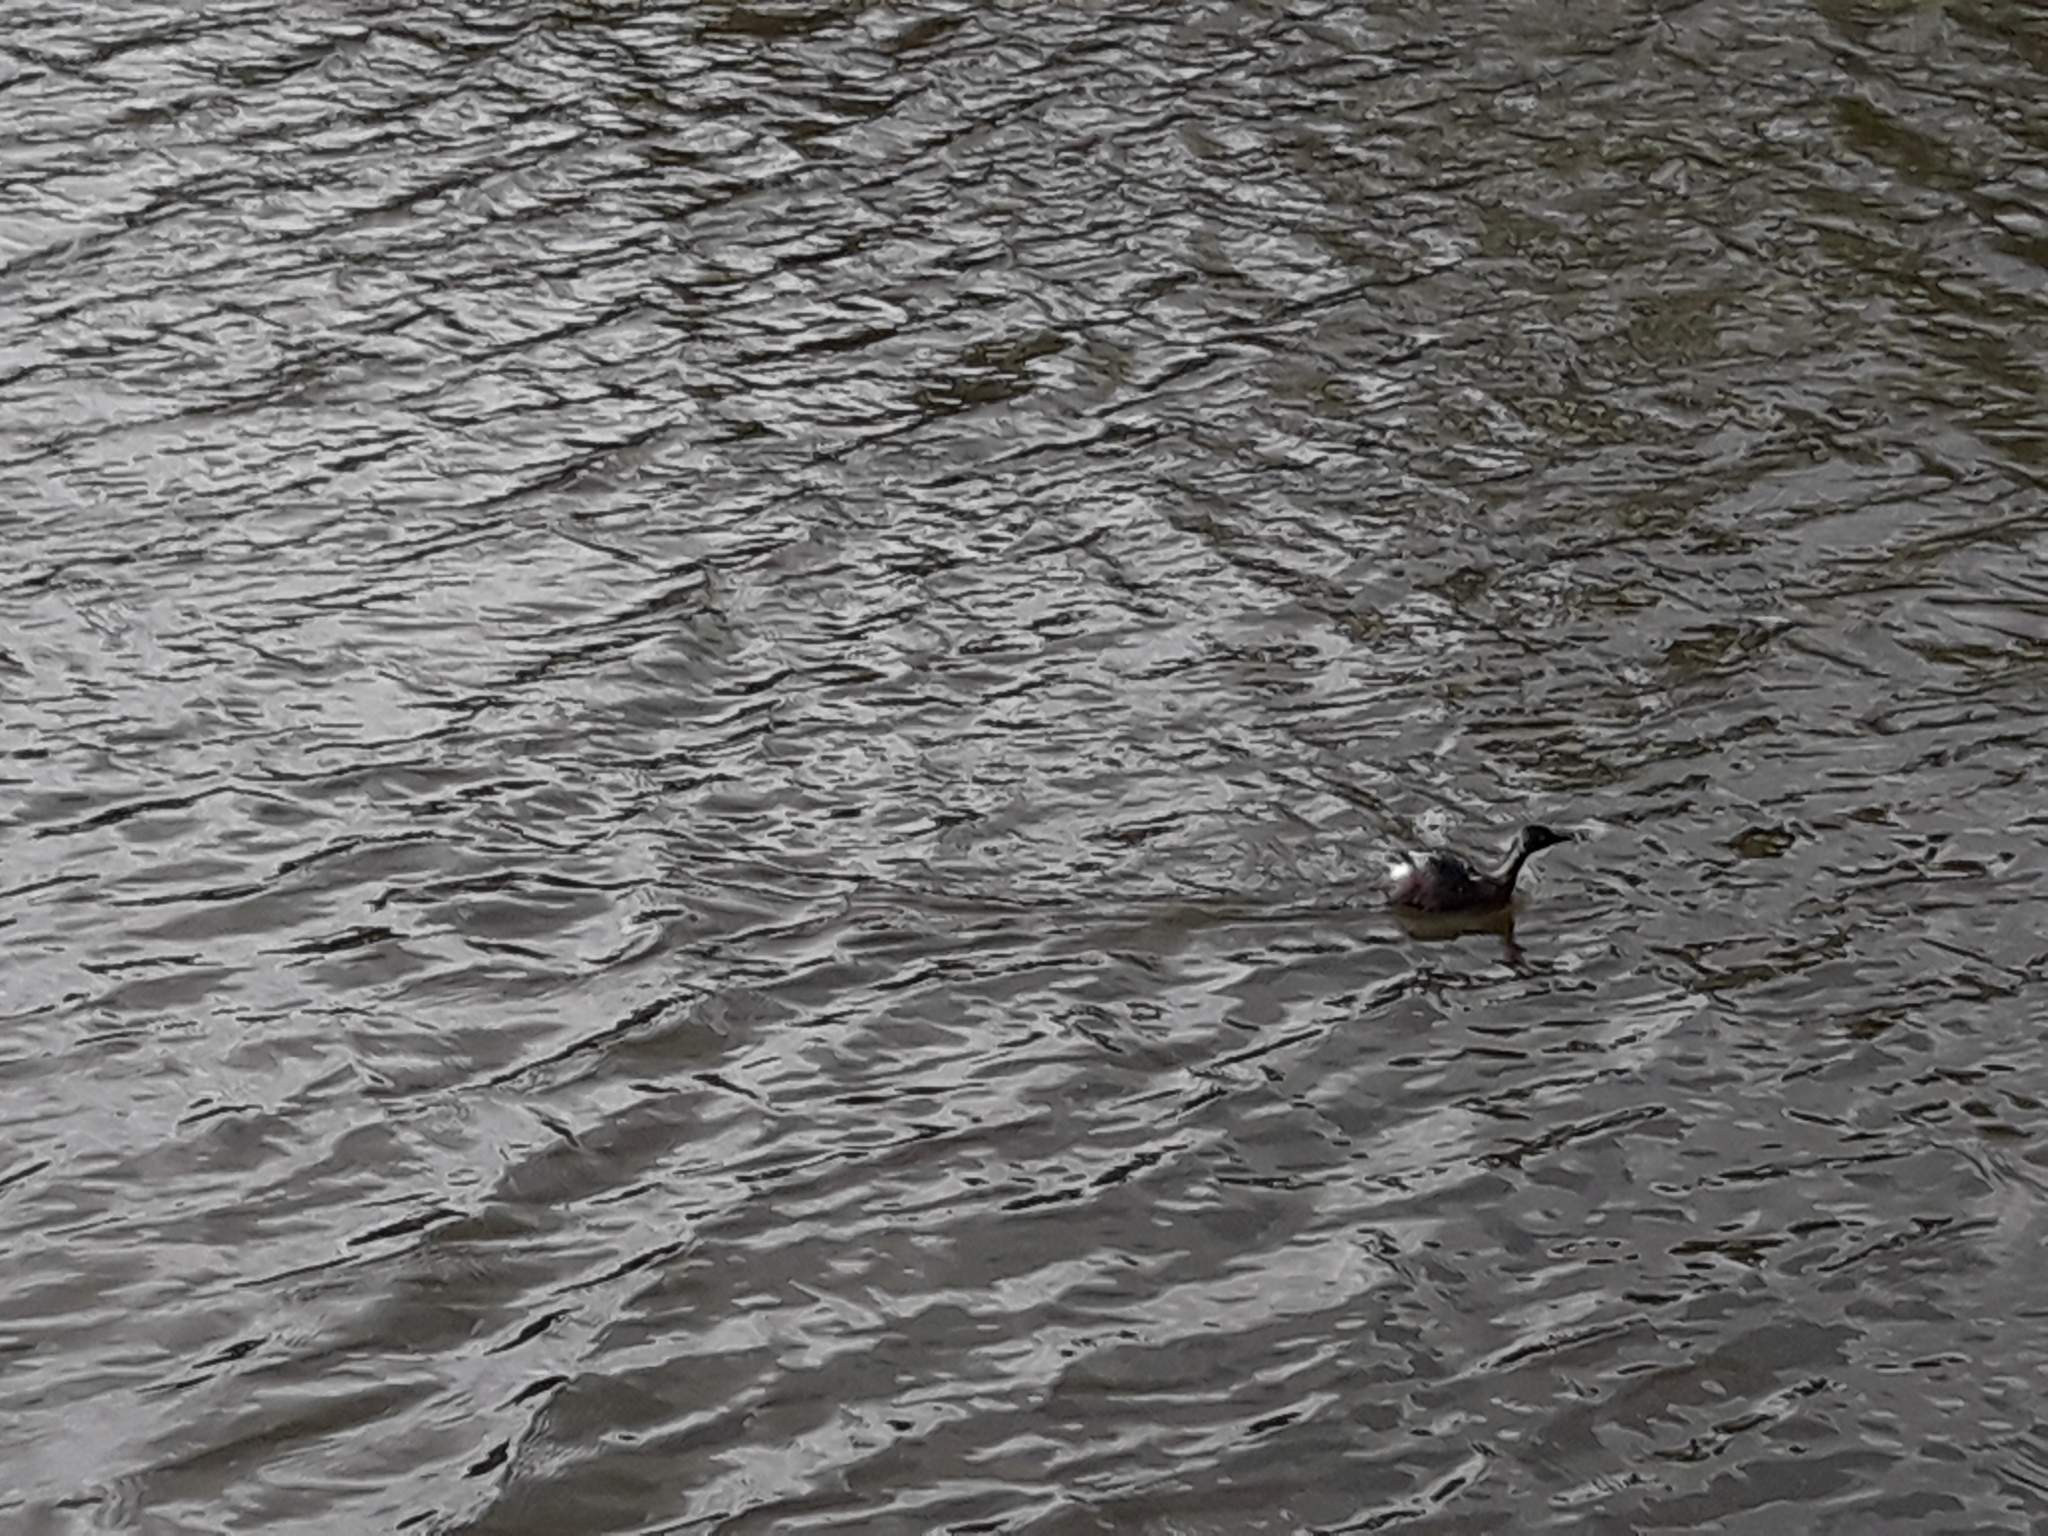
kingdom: Animalia
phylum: Chordata
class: Aves
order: Podicipediformes
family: Podicipedidae
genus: Poliocephalus
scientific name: Poliocephalus rufopectus
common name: New zealand grebe
